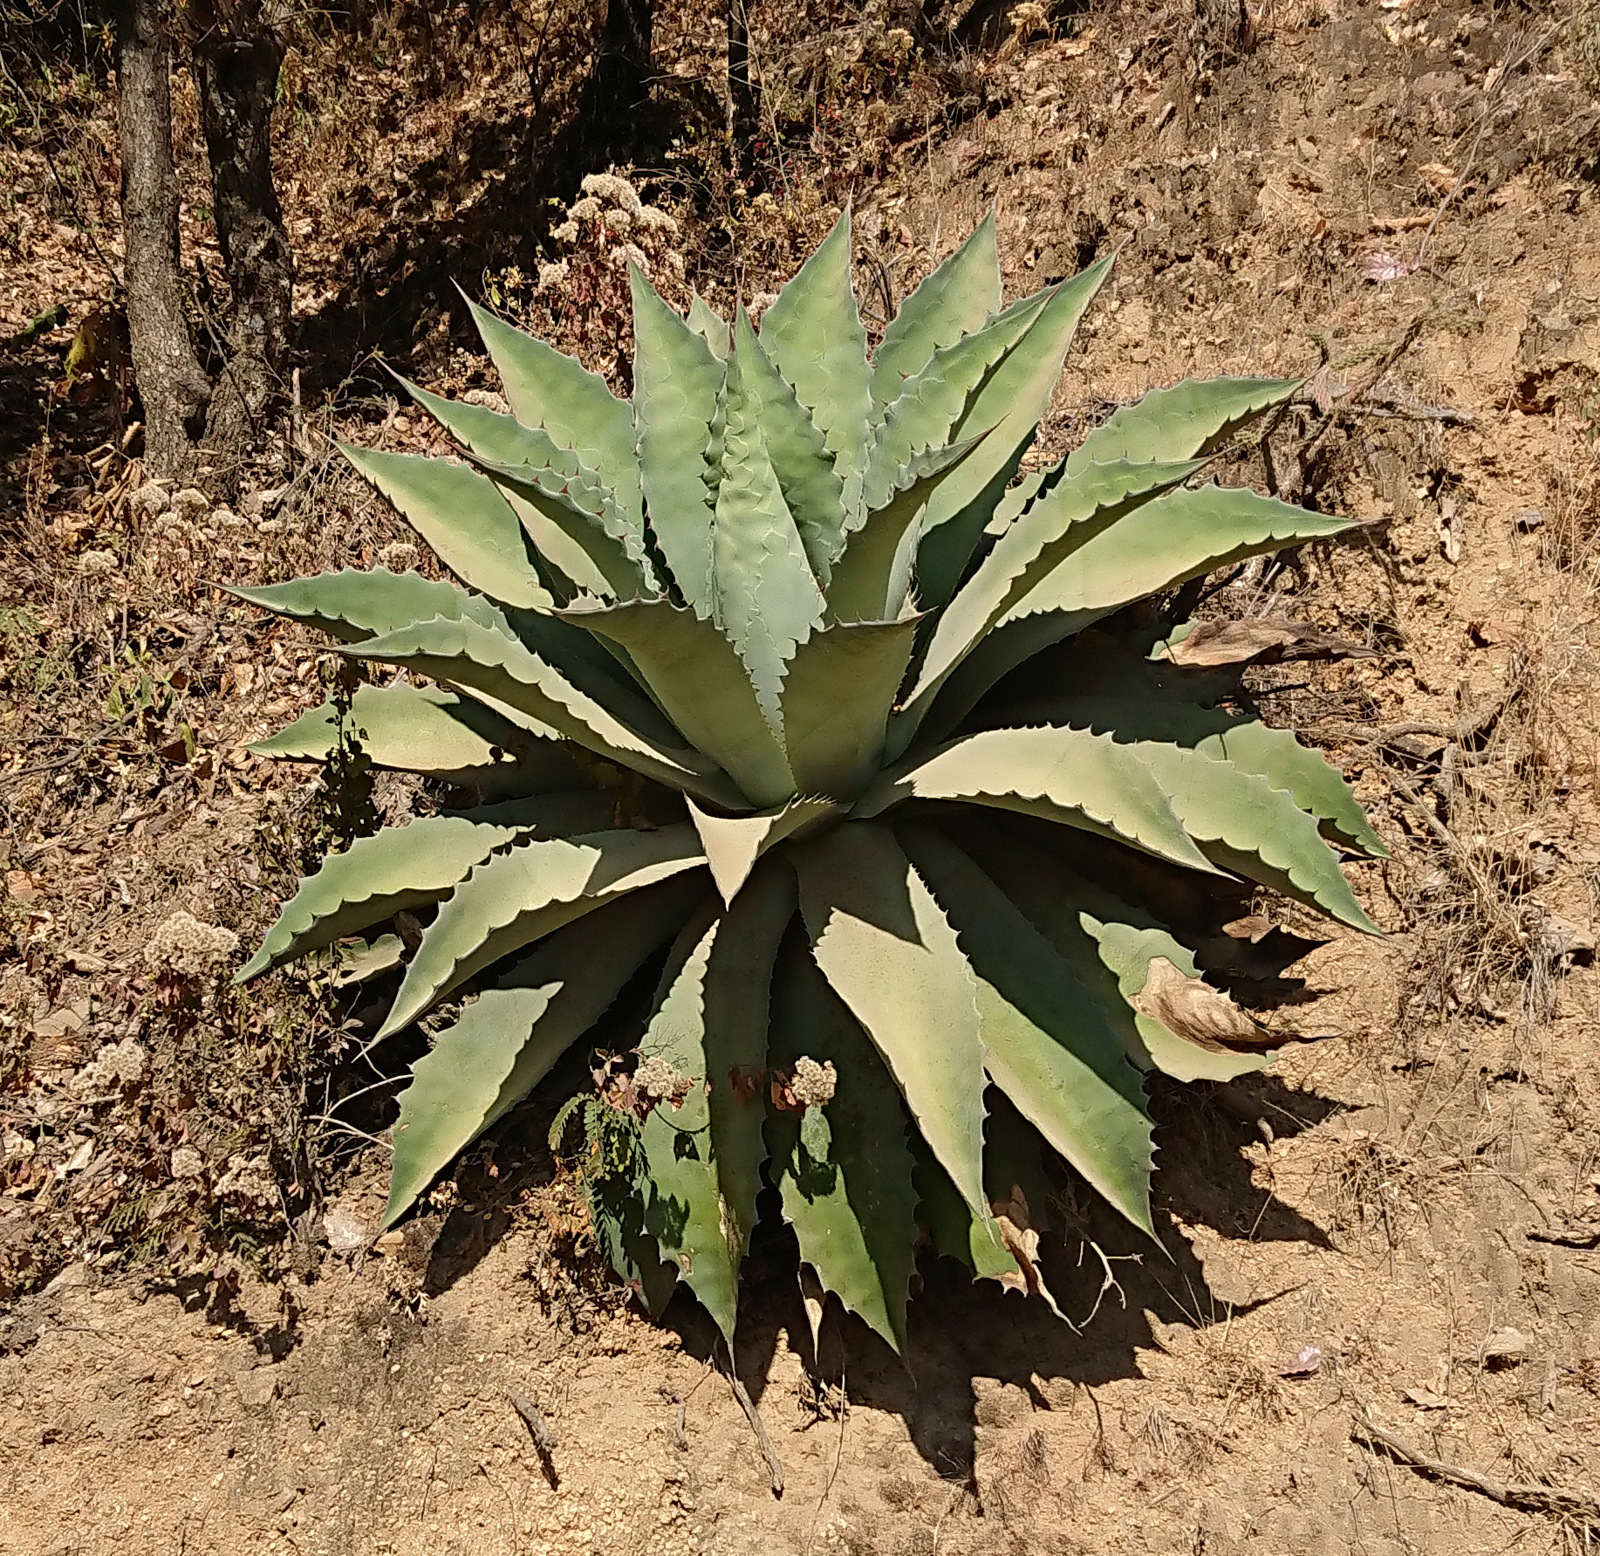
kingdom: Plantae
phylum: Tracheophyta
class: Liliopsida
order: Asparagales
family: Asparagaceae
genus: Agave
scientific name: Agave potatorum
